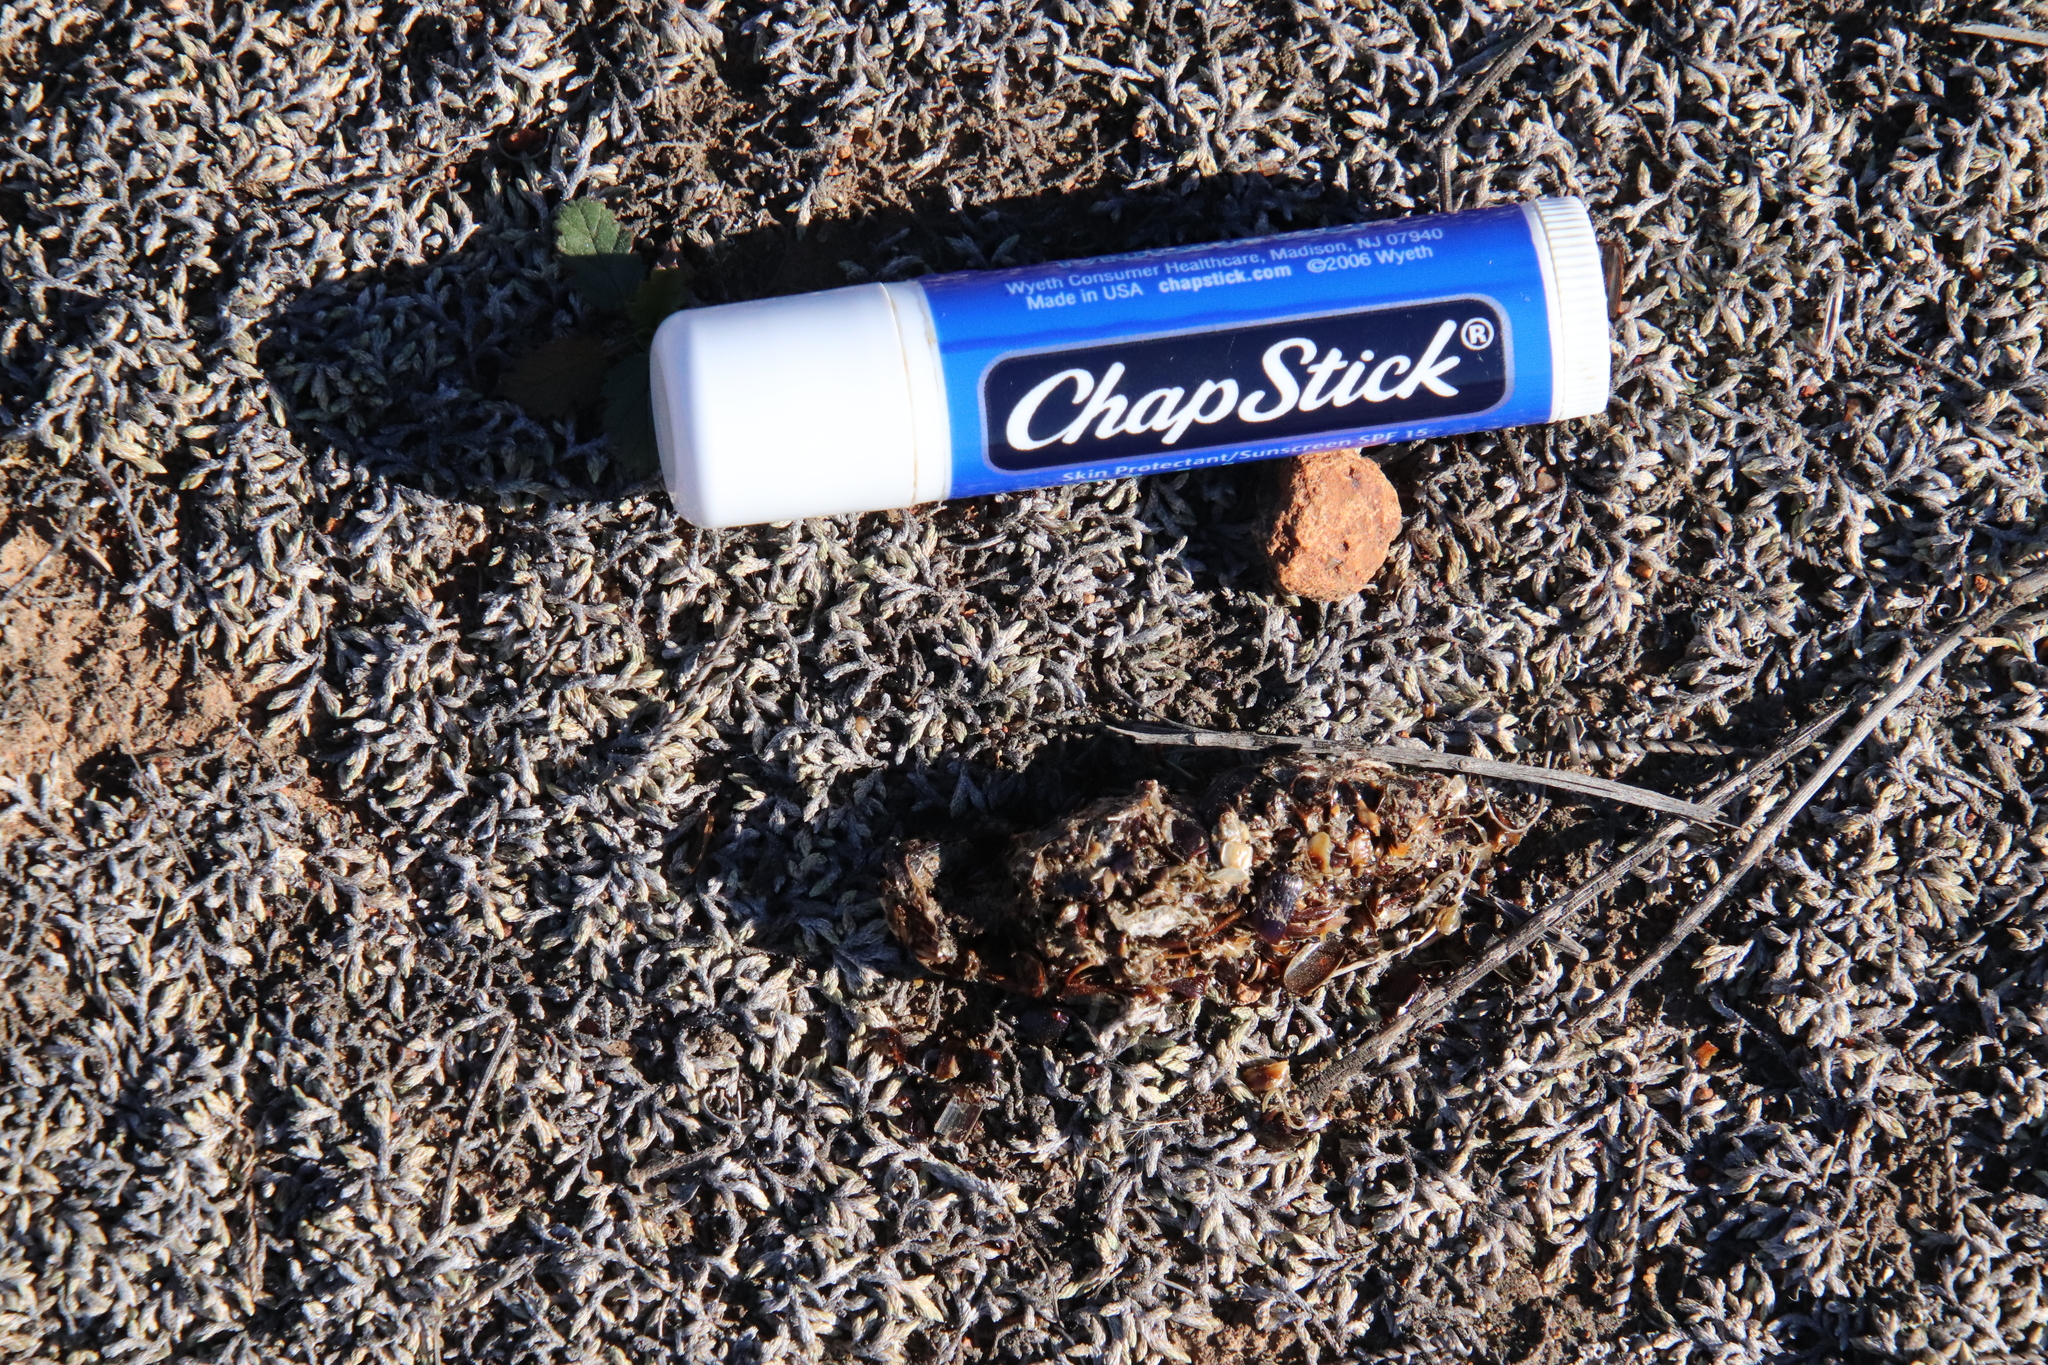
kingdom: Animalia
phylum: Chordata
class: Mammalia
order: Carnivora
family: Mephitidae
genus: Mephitis
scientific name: Mephitis mephitis
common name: Striped skunk
